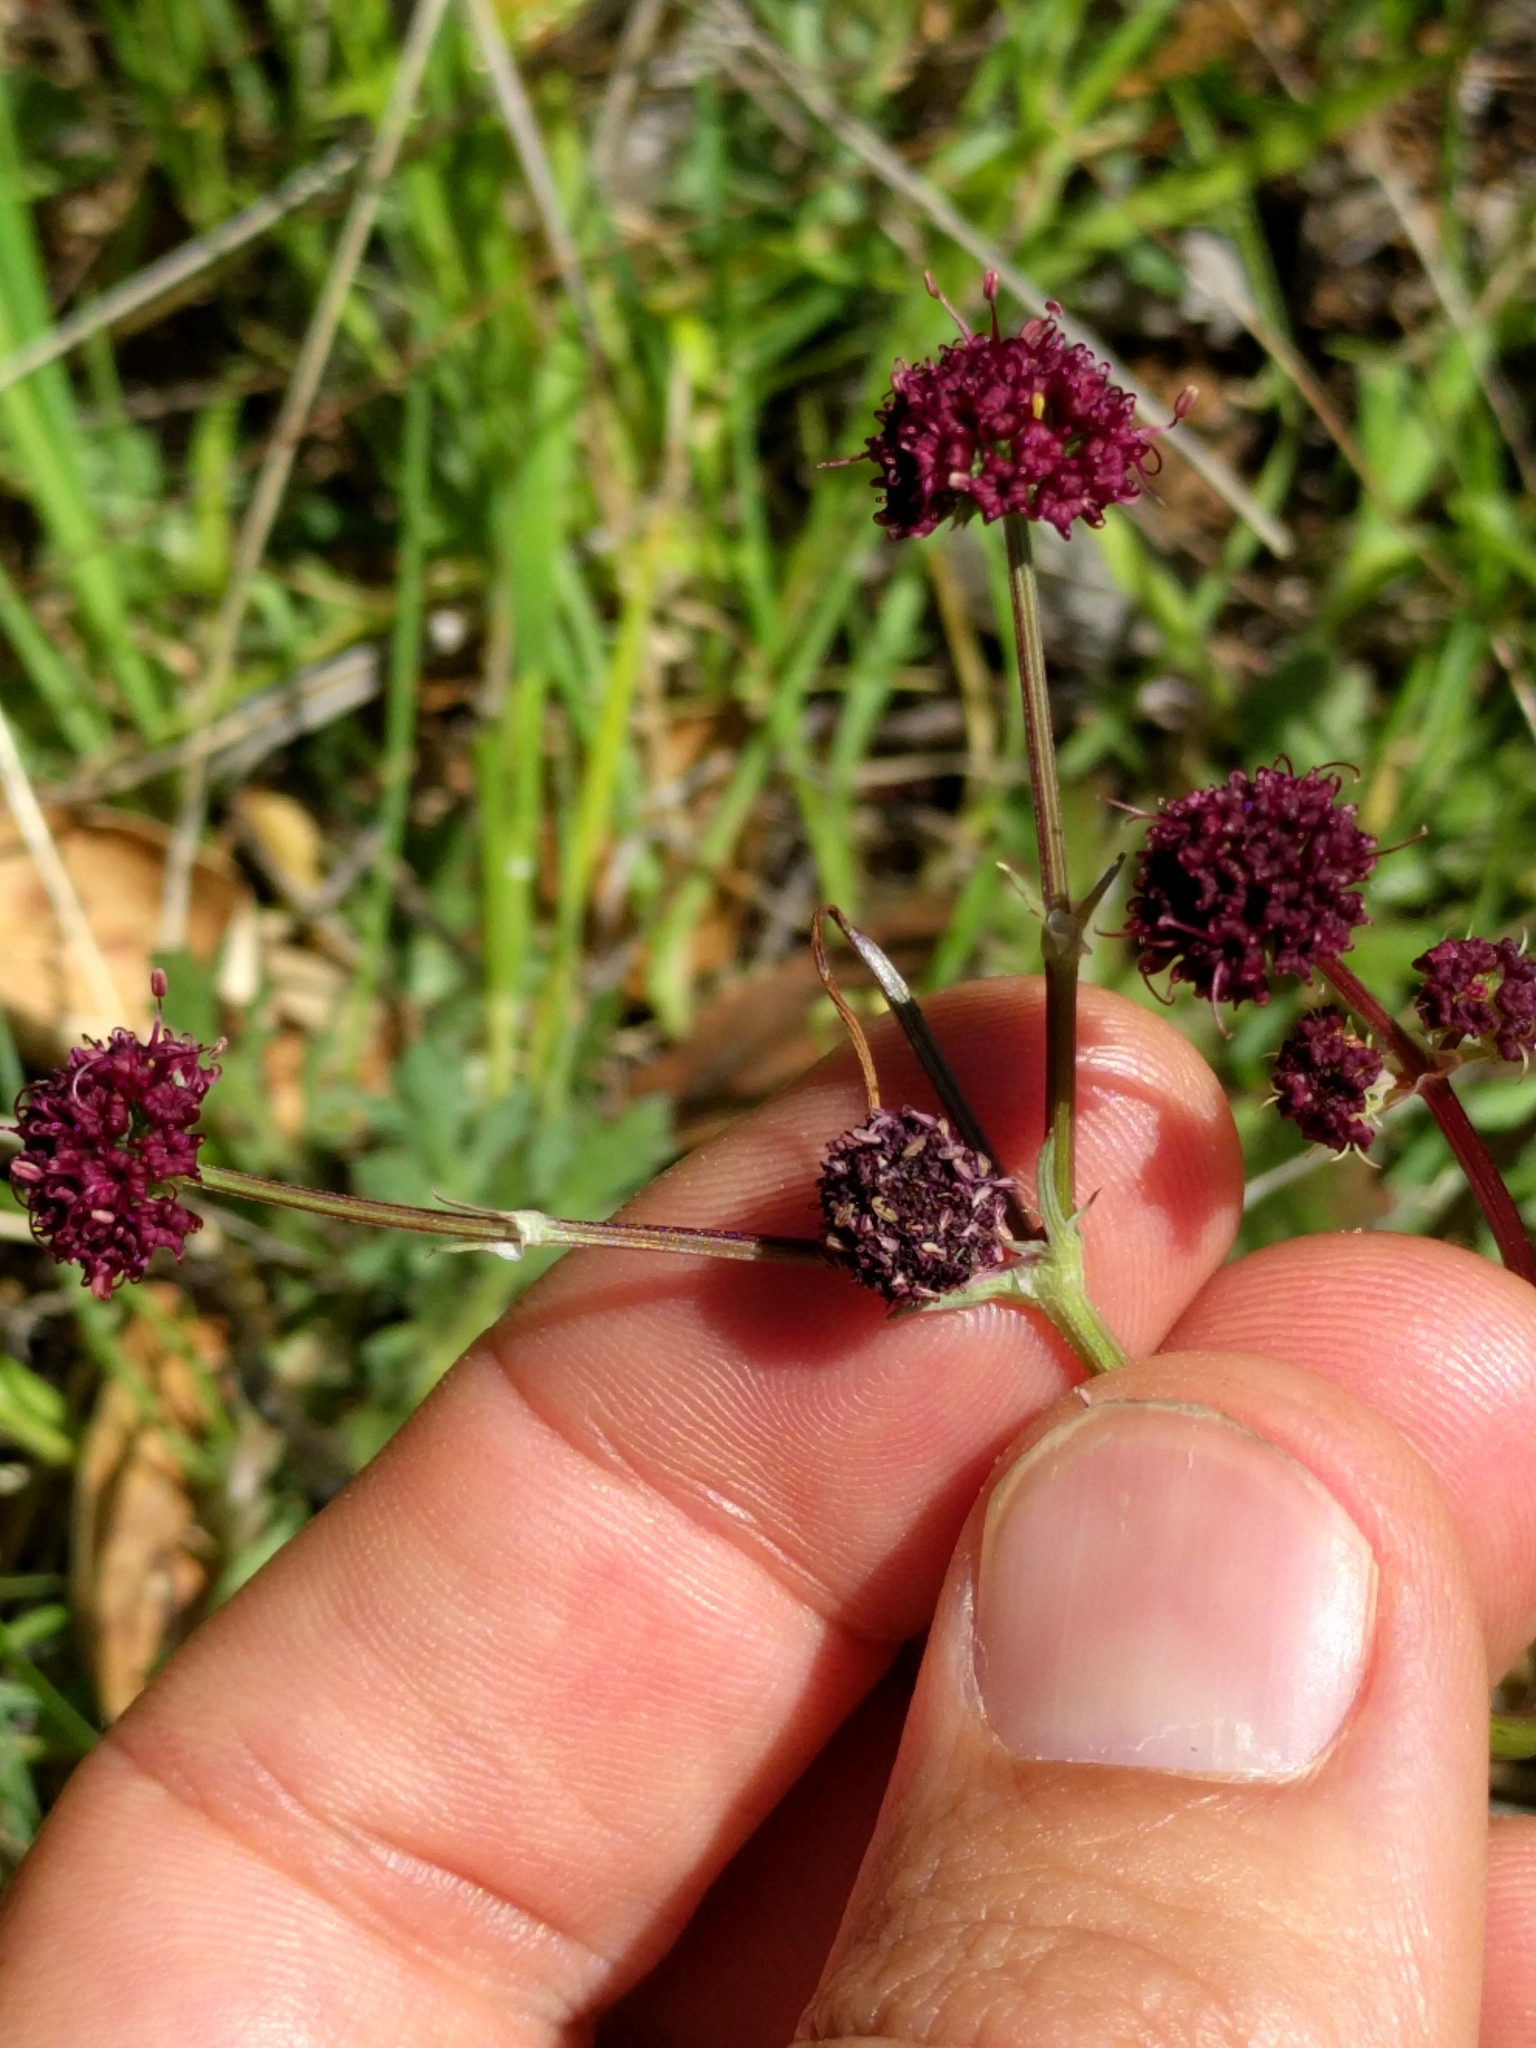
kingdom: Plantae
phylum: Tracheophyta
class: Magnoliopsida
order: Apiales
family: Apiaceae
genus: Sanicula
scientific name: Sanicula bipinnatifida
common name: Shoe-buttons
